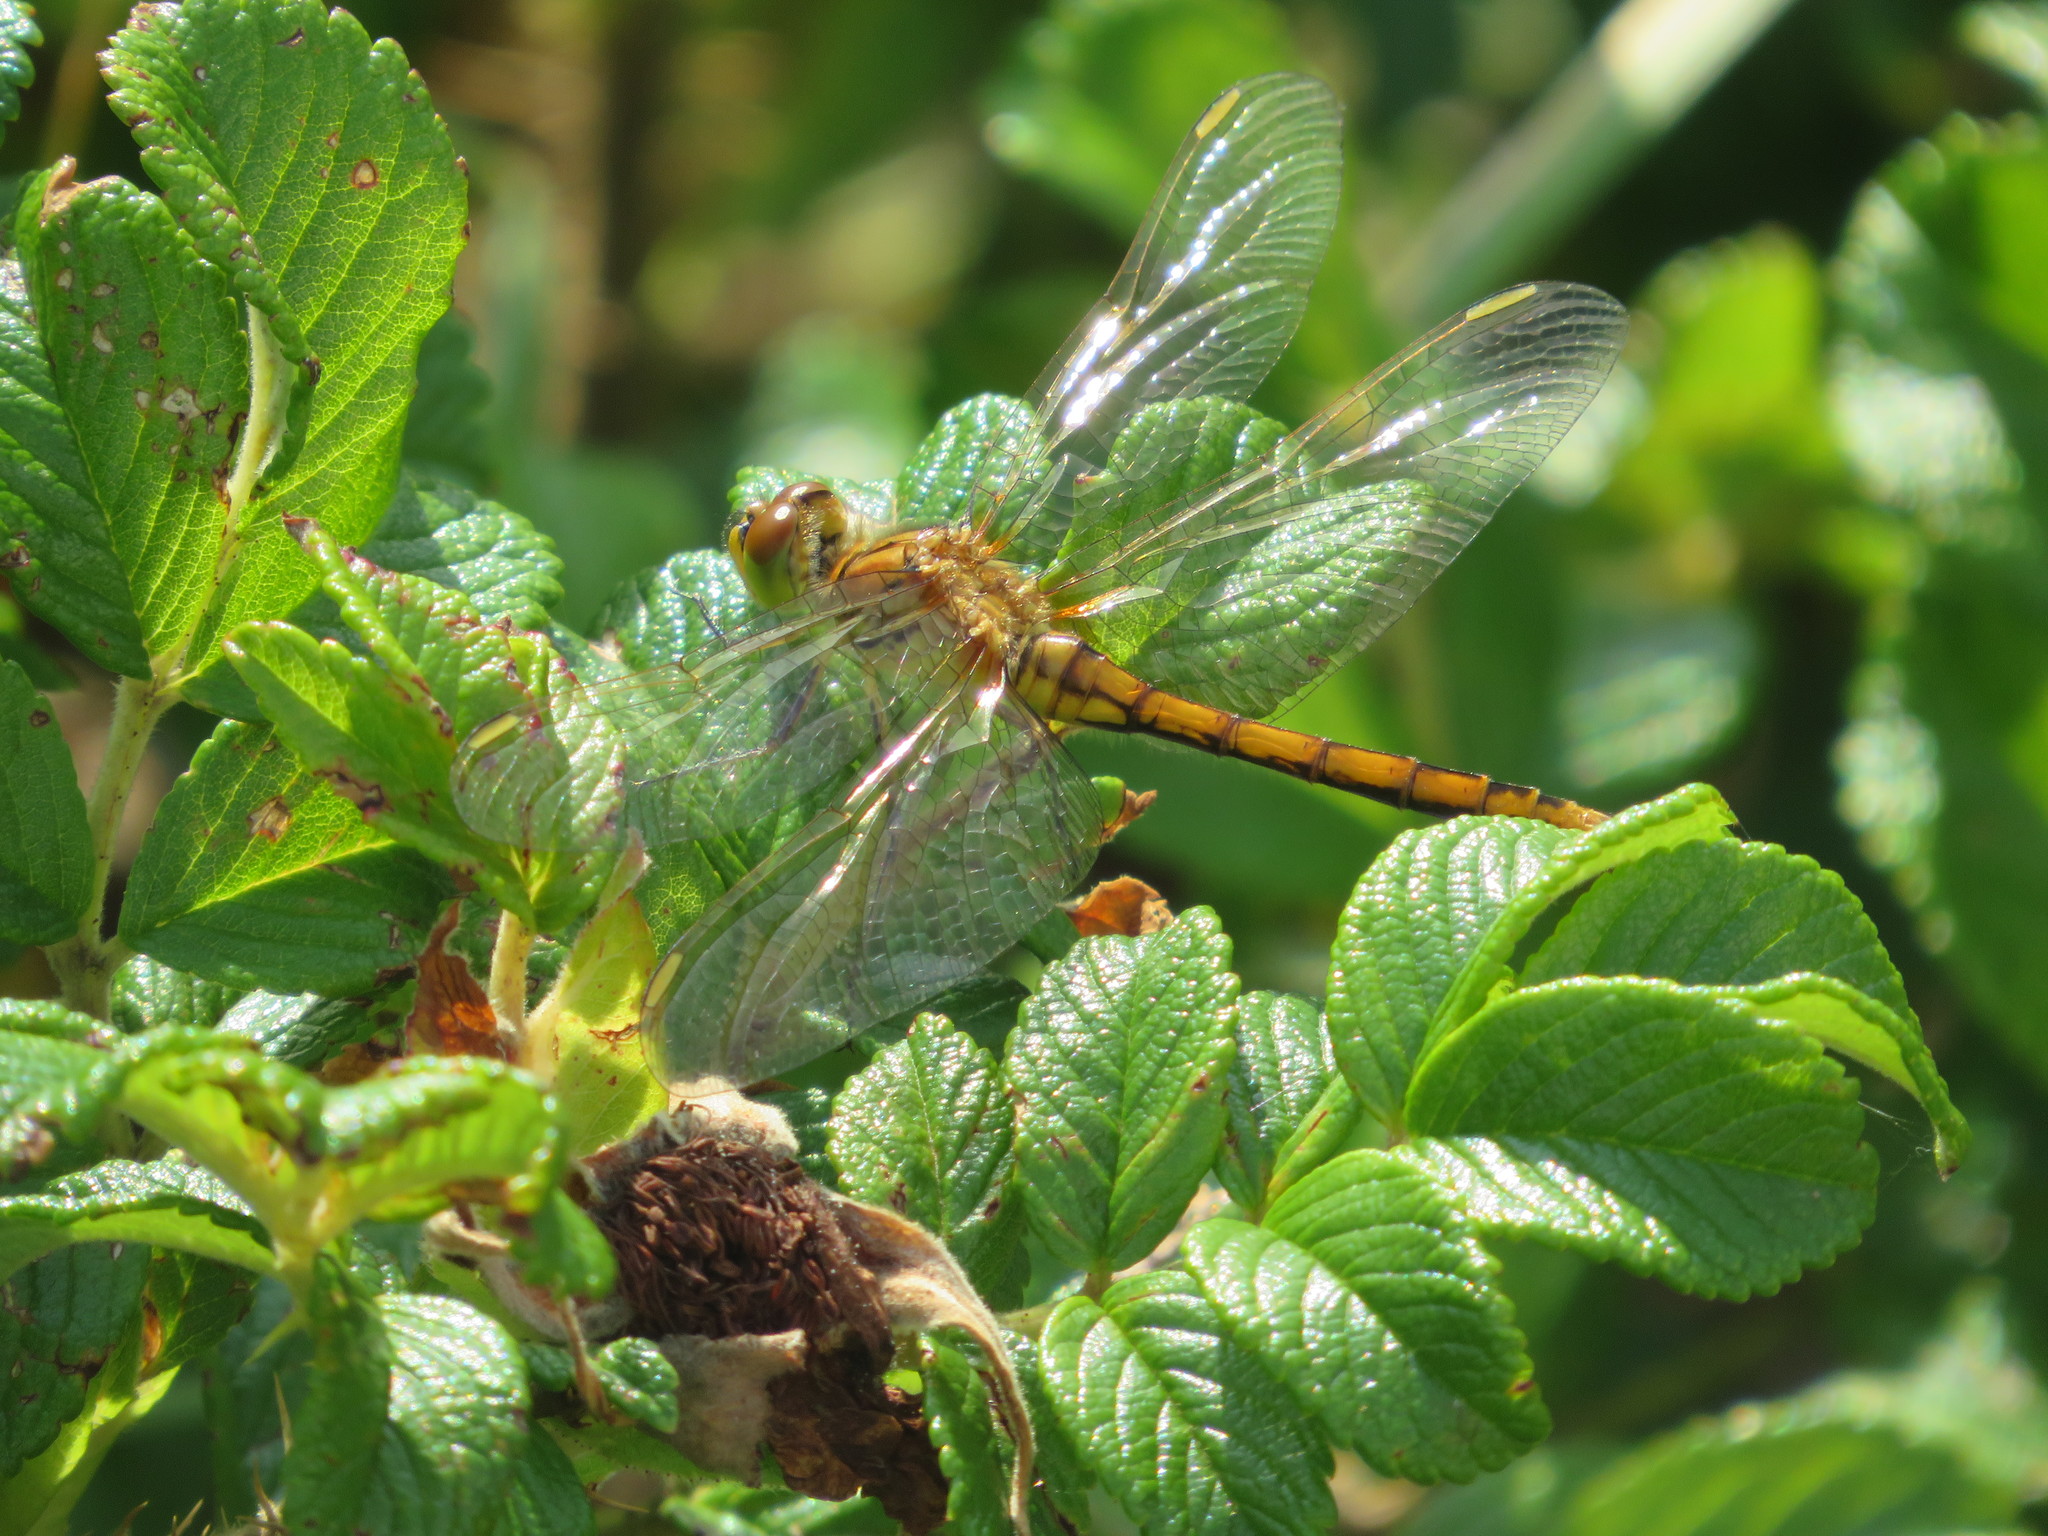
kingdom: Animalia
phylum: Arthropoda
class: Insecta
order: Odonata
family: Libellulidae
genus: Sympetrum
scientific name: Sympetrum costiferum
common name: Saffron-winged meadowhawk
